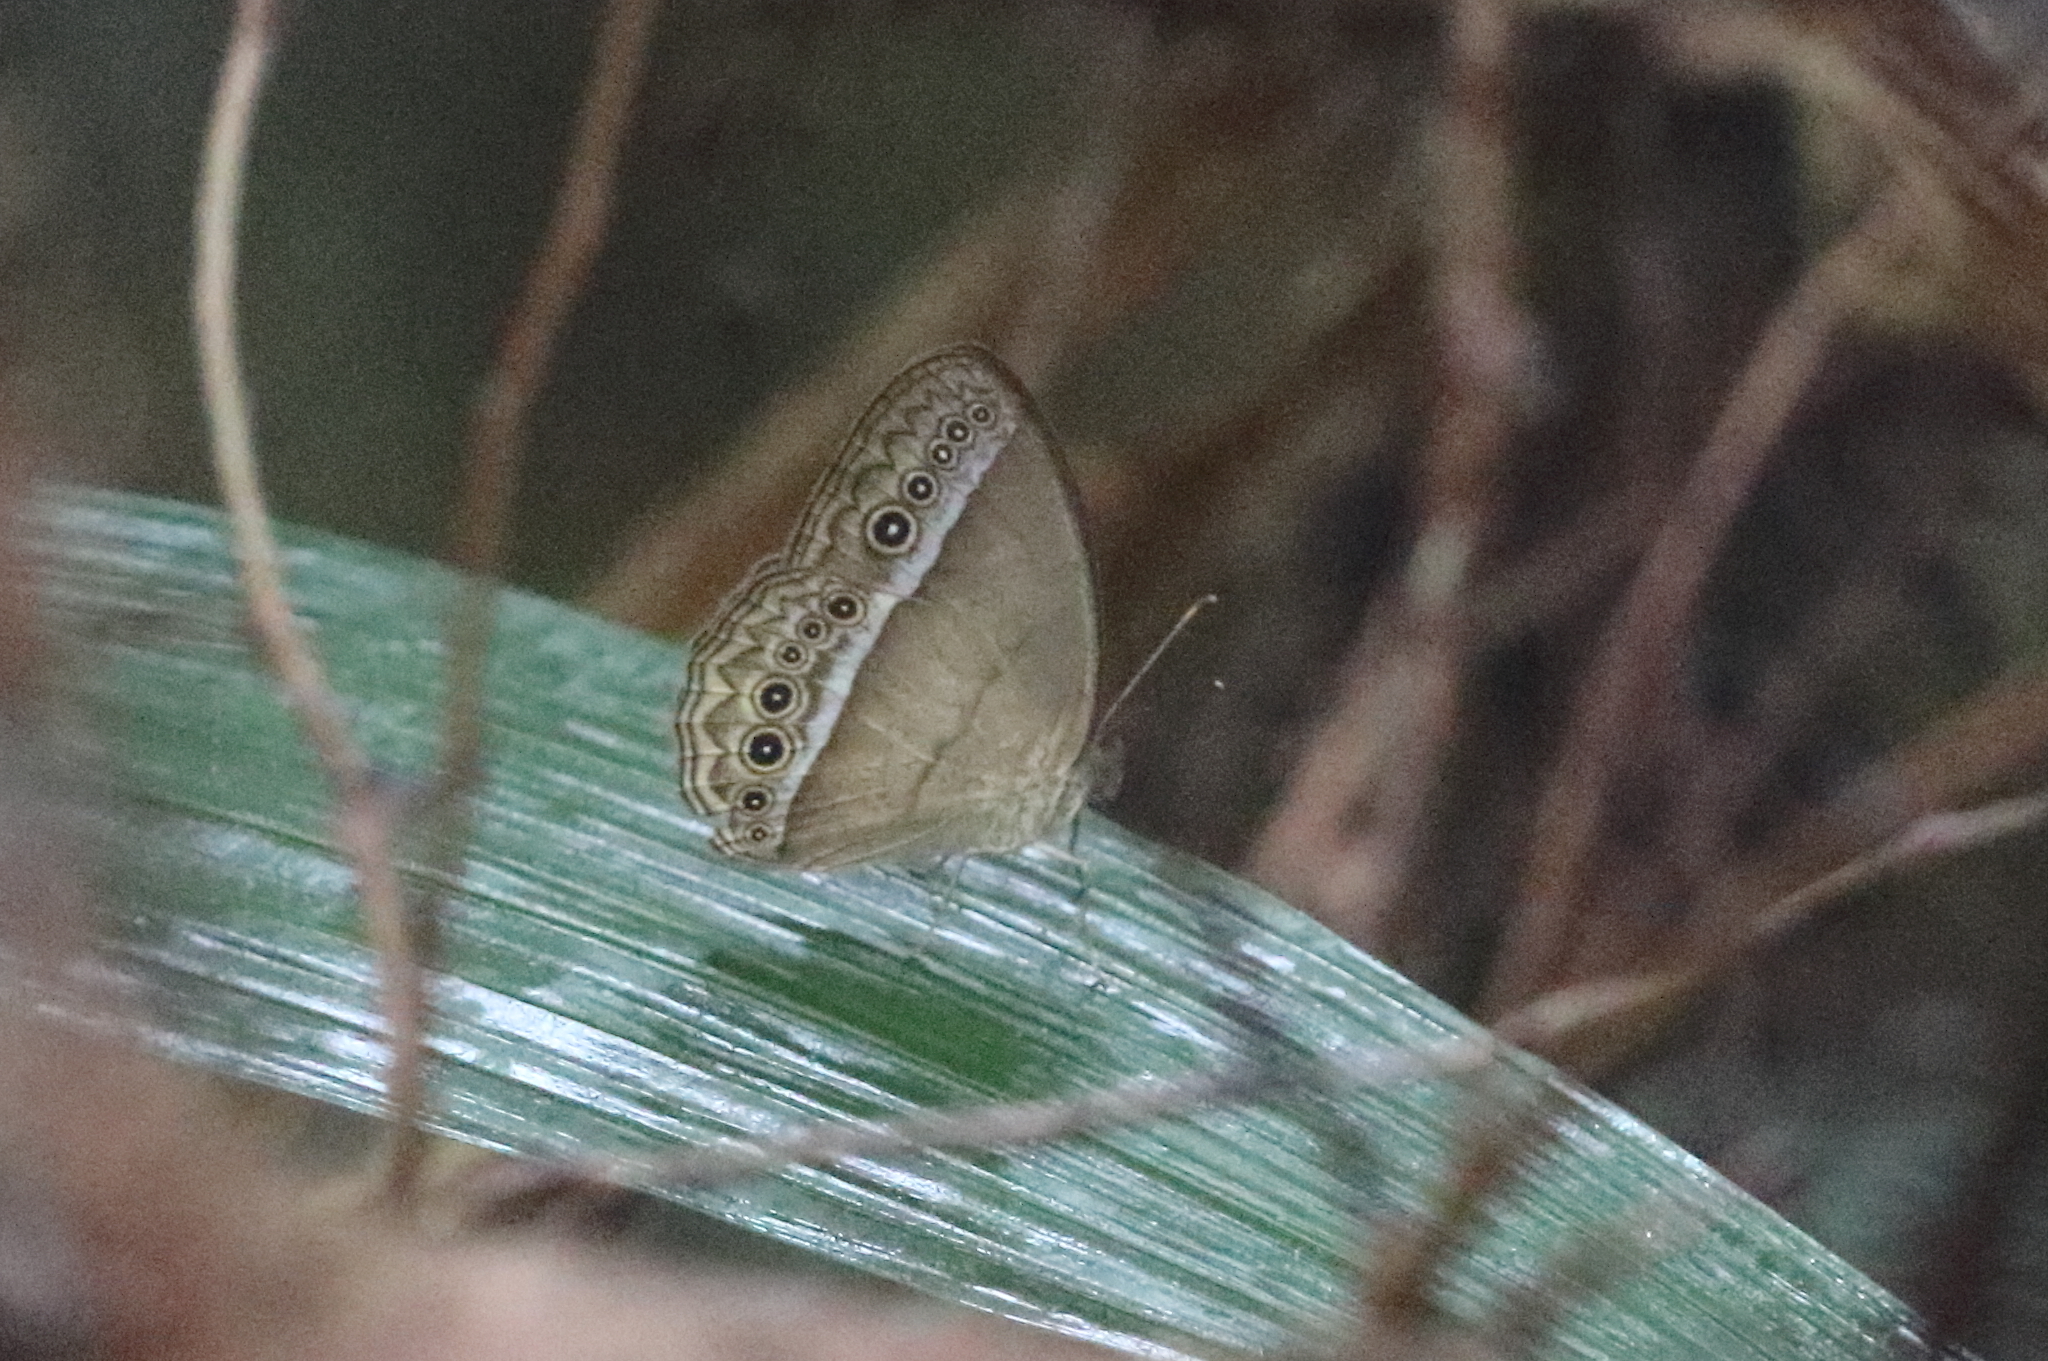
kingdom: Animalia
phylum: Arthropoda
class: Insecta
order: Lepidoptera
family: Nymphalidae
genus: Mycalesis
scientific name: Mycalesis orseis
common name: Purple bushbrown
